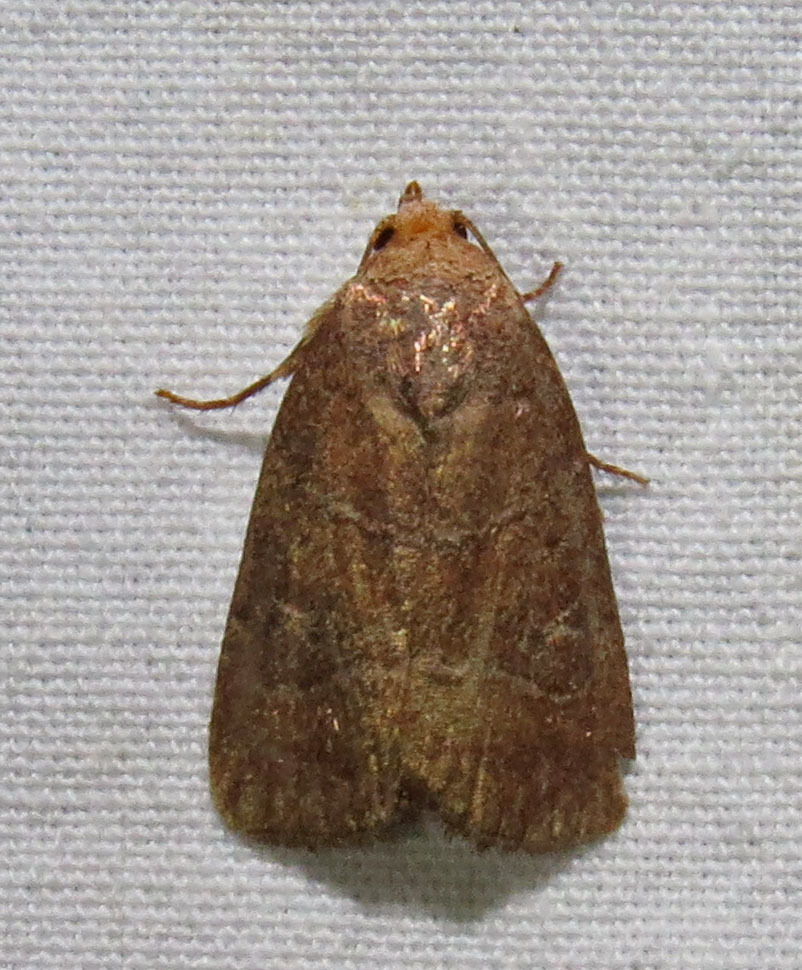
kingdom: Animalia
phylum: Arthropoda
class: Insecta
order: Lepidoptera
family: Noctuidae
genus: Elaphria
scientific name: Elaphria grata
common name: Grateful midget moth
